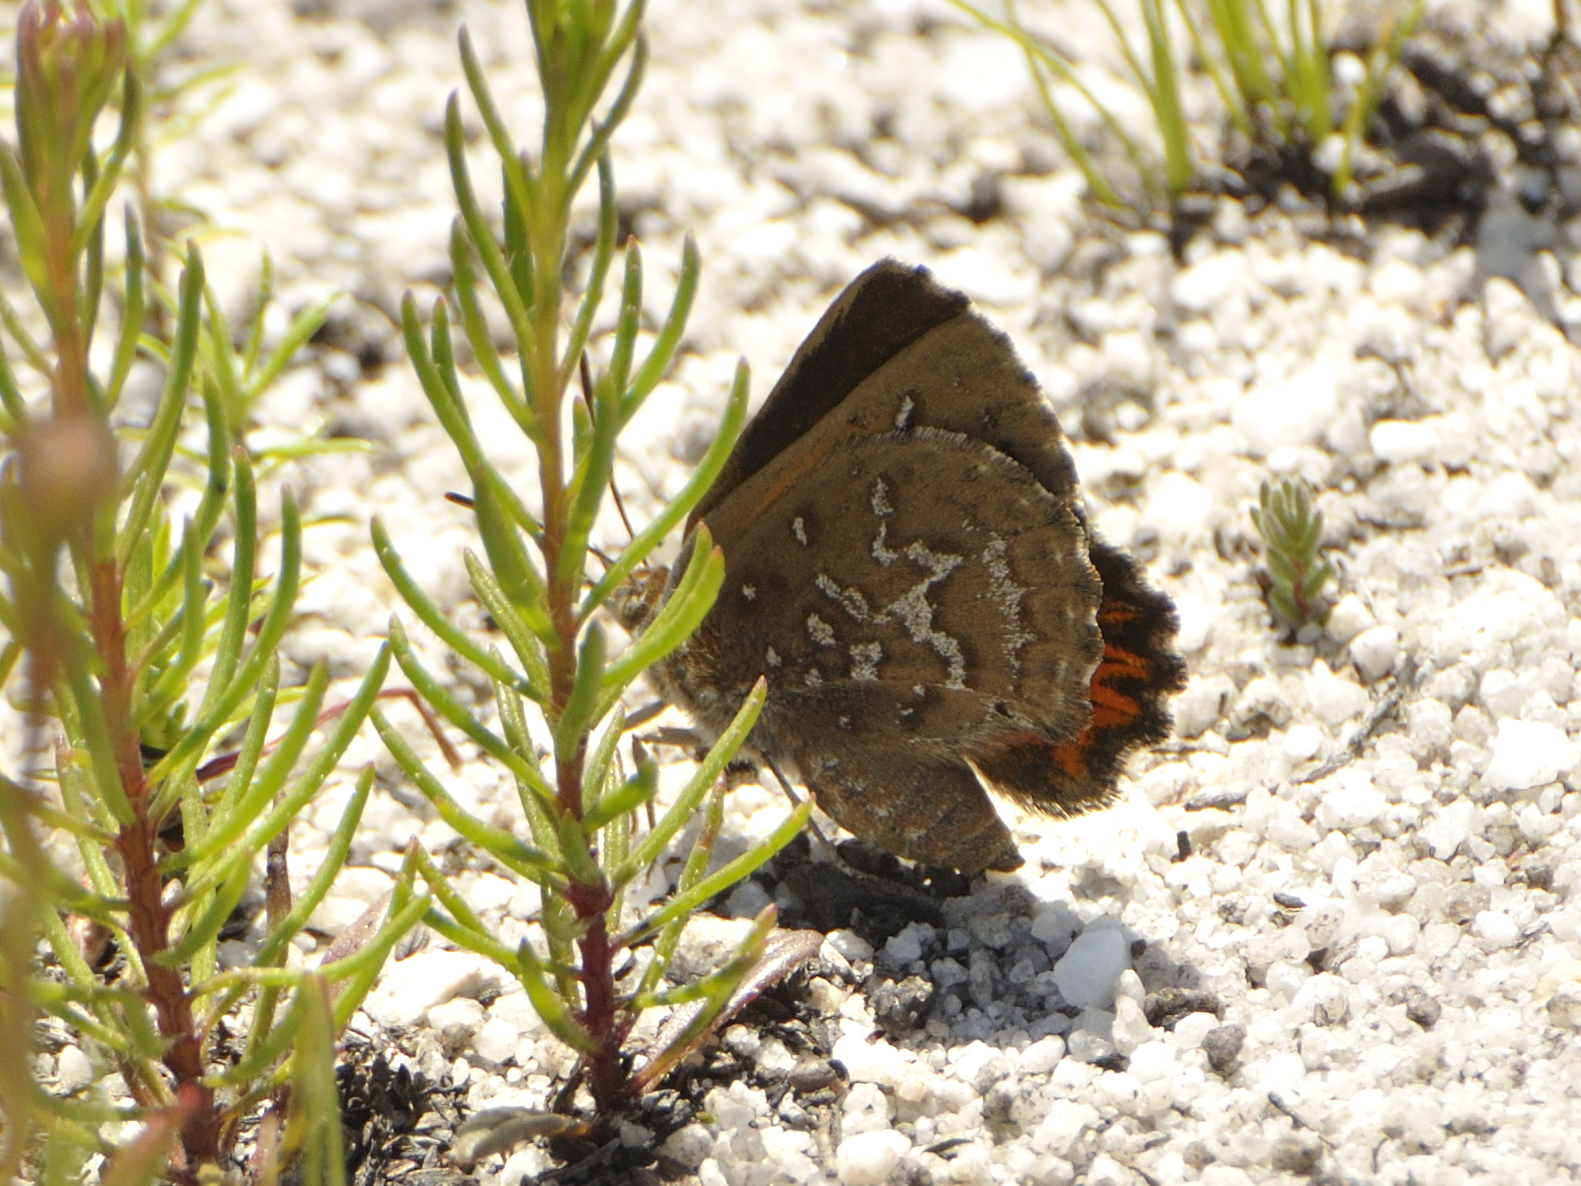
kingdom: Animalia
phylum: Arthropoda
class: Insecta
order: Lepidoptera
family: Lycaenidae
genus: Aloeides
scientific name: Aloeides pallida
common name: Giant copper
